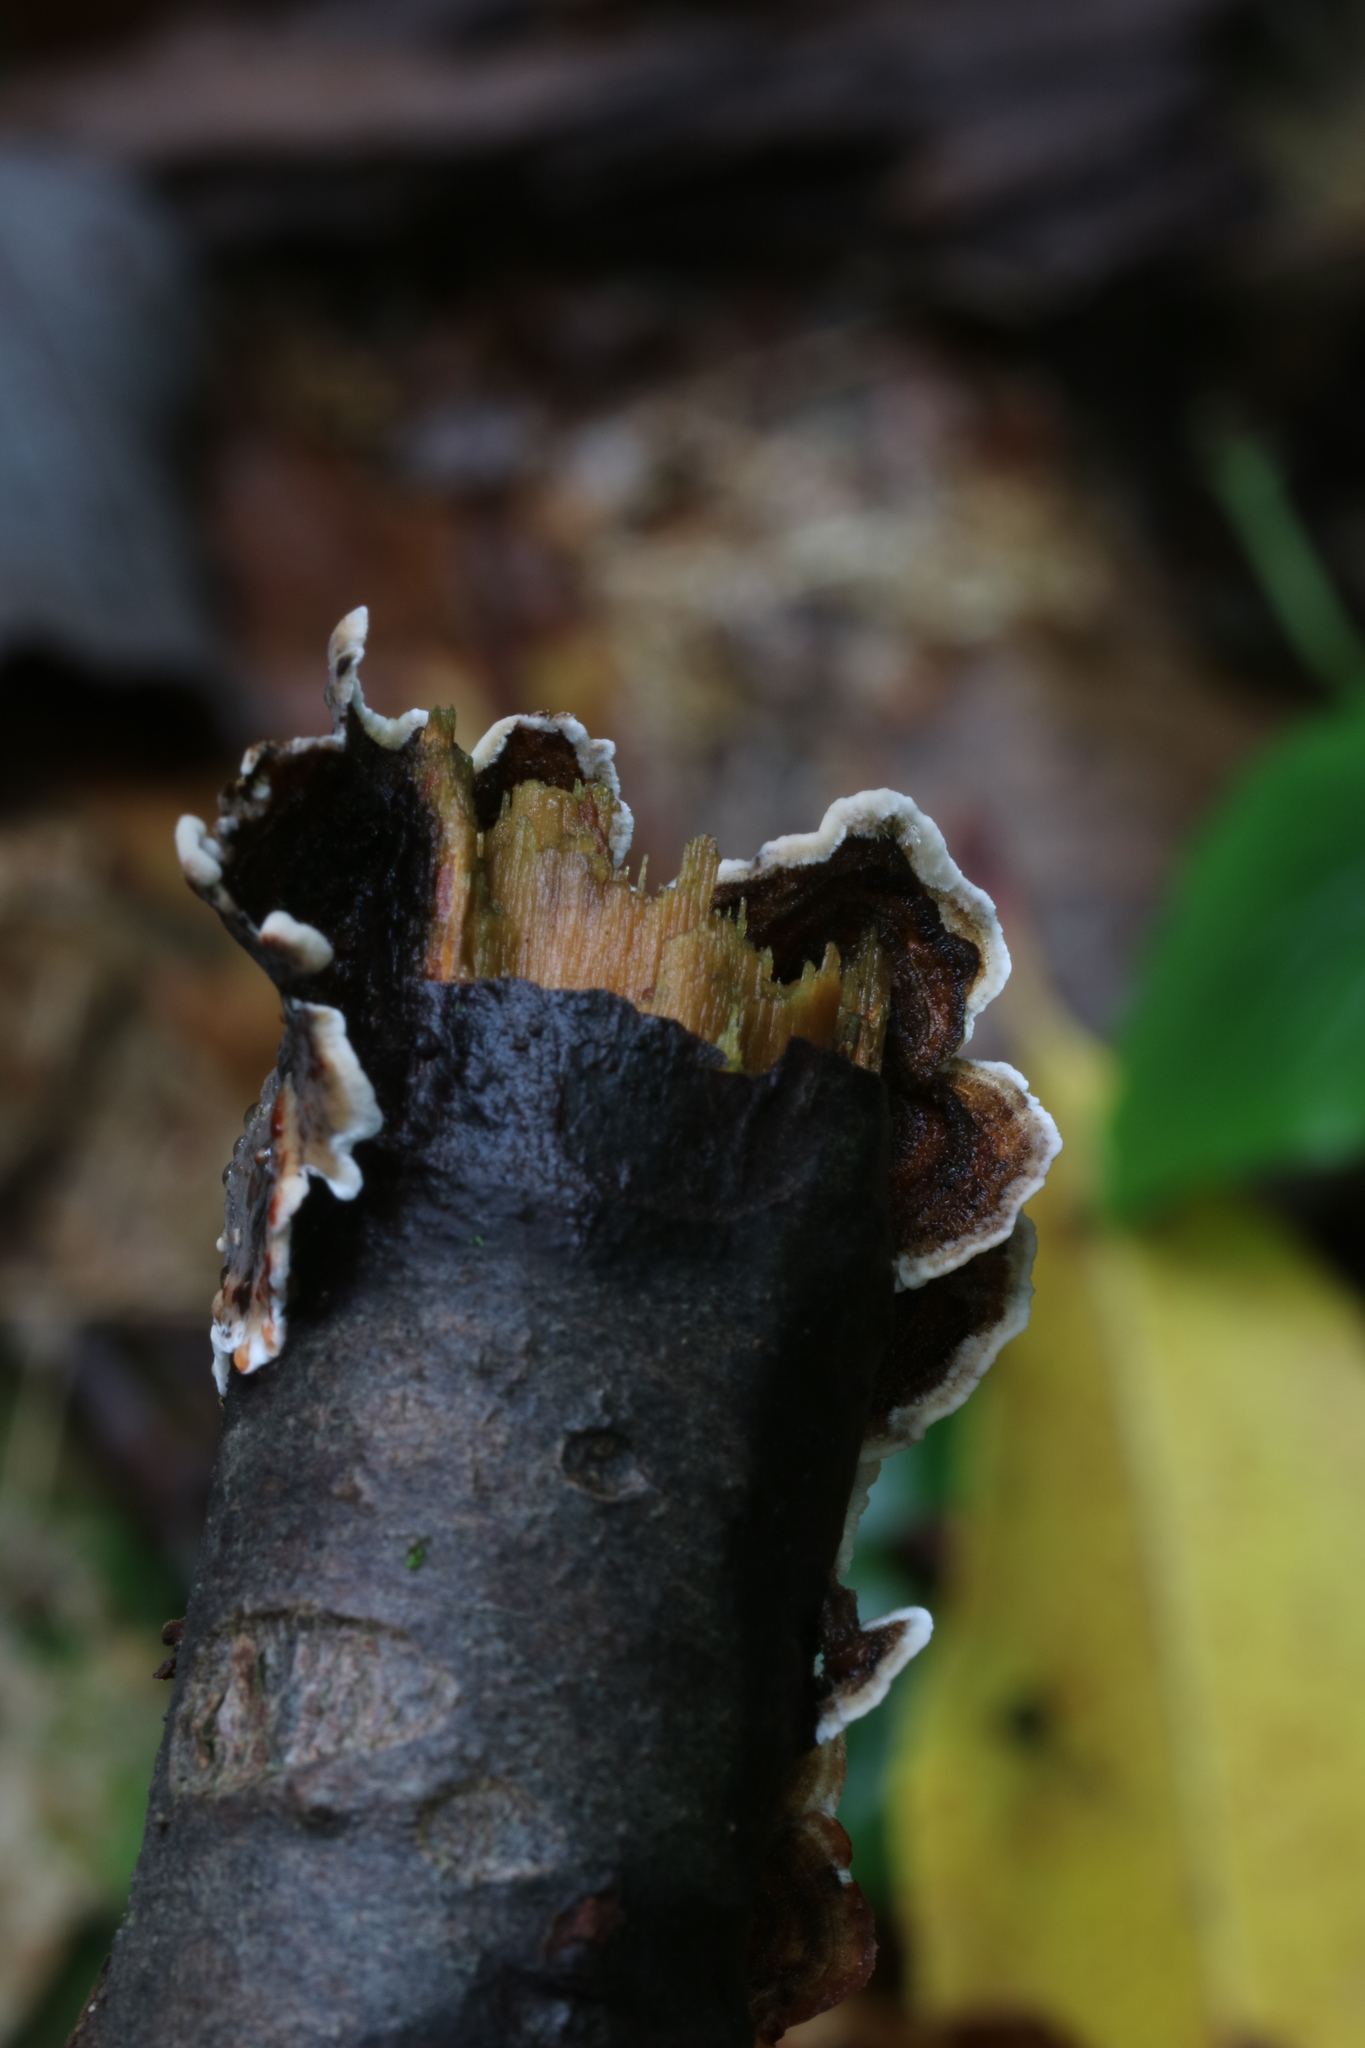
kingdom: Fungi
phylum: Basidiomycota
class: Agaricomycetes
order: Russulales
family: Stereaceae
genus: Stereum
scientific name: Stereum sanguinolentum
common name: Bleeding conifer crust
